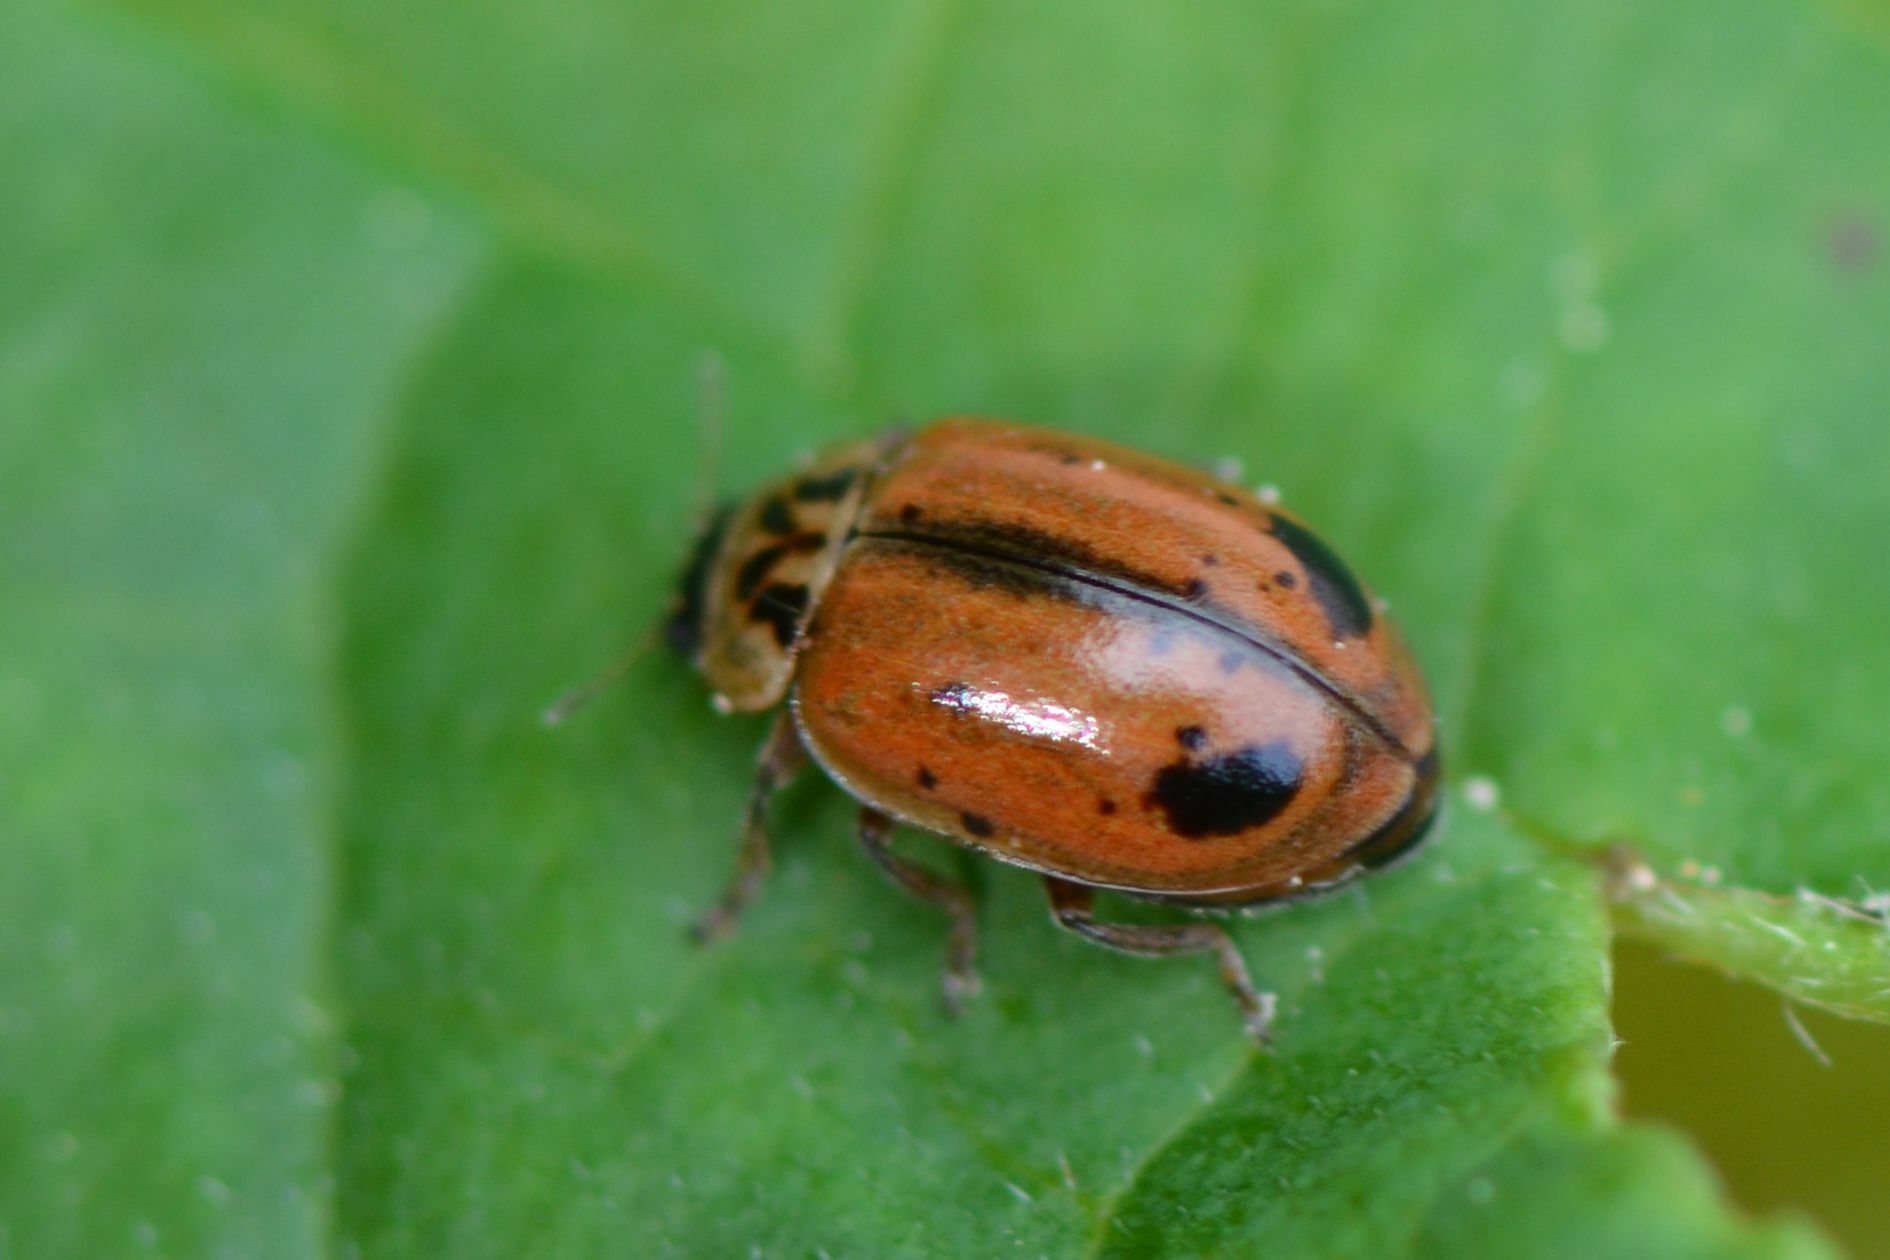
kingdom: Animalia
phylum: Arthropoda
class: Insecta
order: Coleoptera
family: Coccinellidae
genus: Aphidecta
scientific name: Aphidecta obliterata
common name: Larch ladybird
